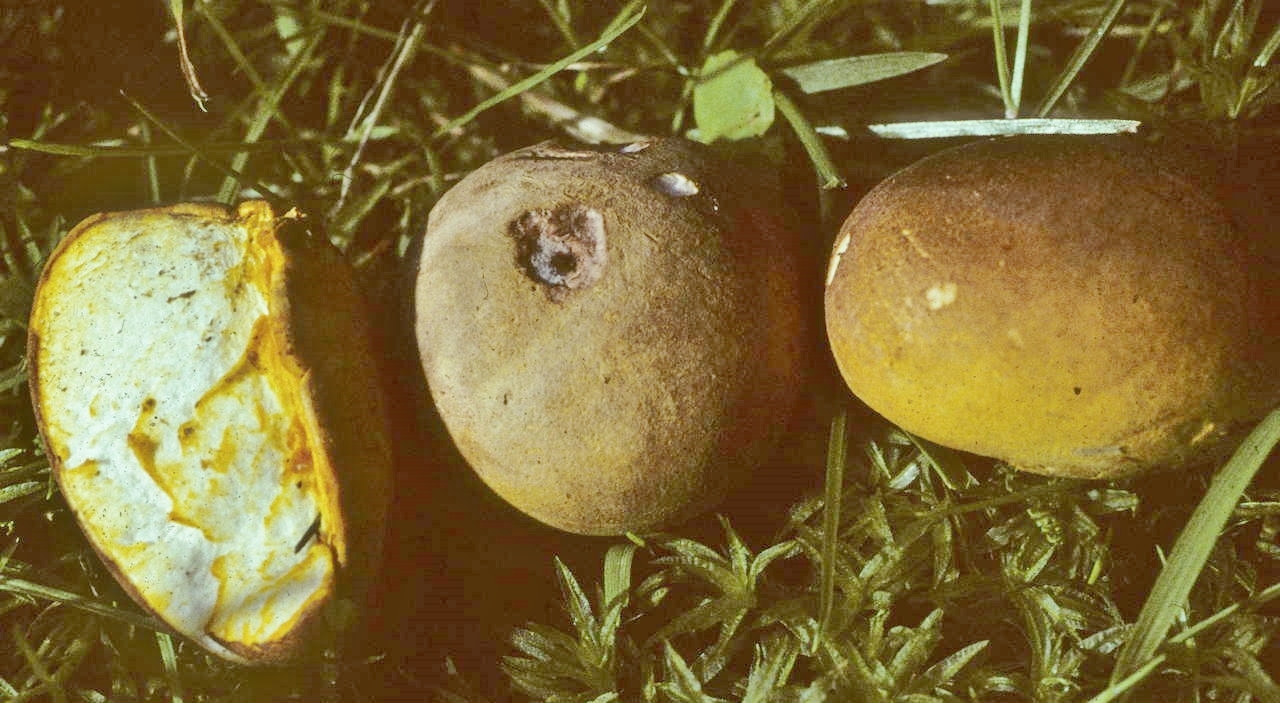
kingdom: Fungi
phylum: Basidiomycota
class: Agaricomycetes
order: Agaricales
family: Lycoperdaceae
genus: Calvatia
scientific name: Calvatia candida
